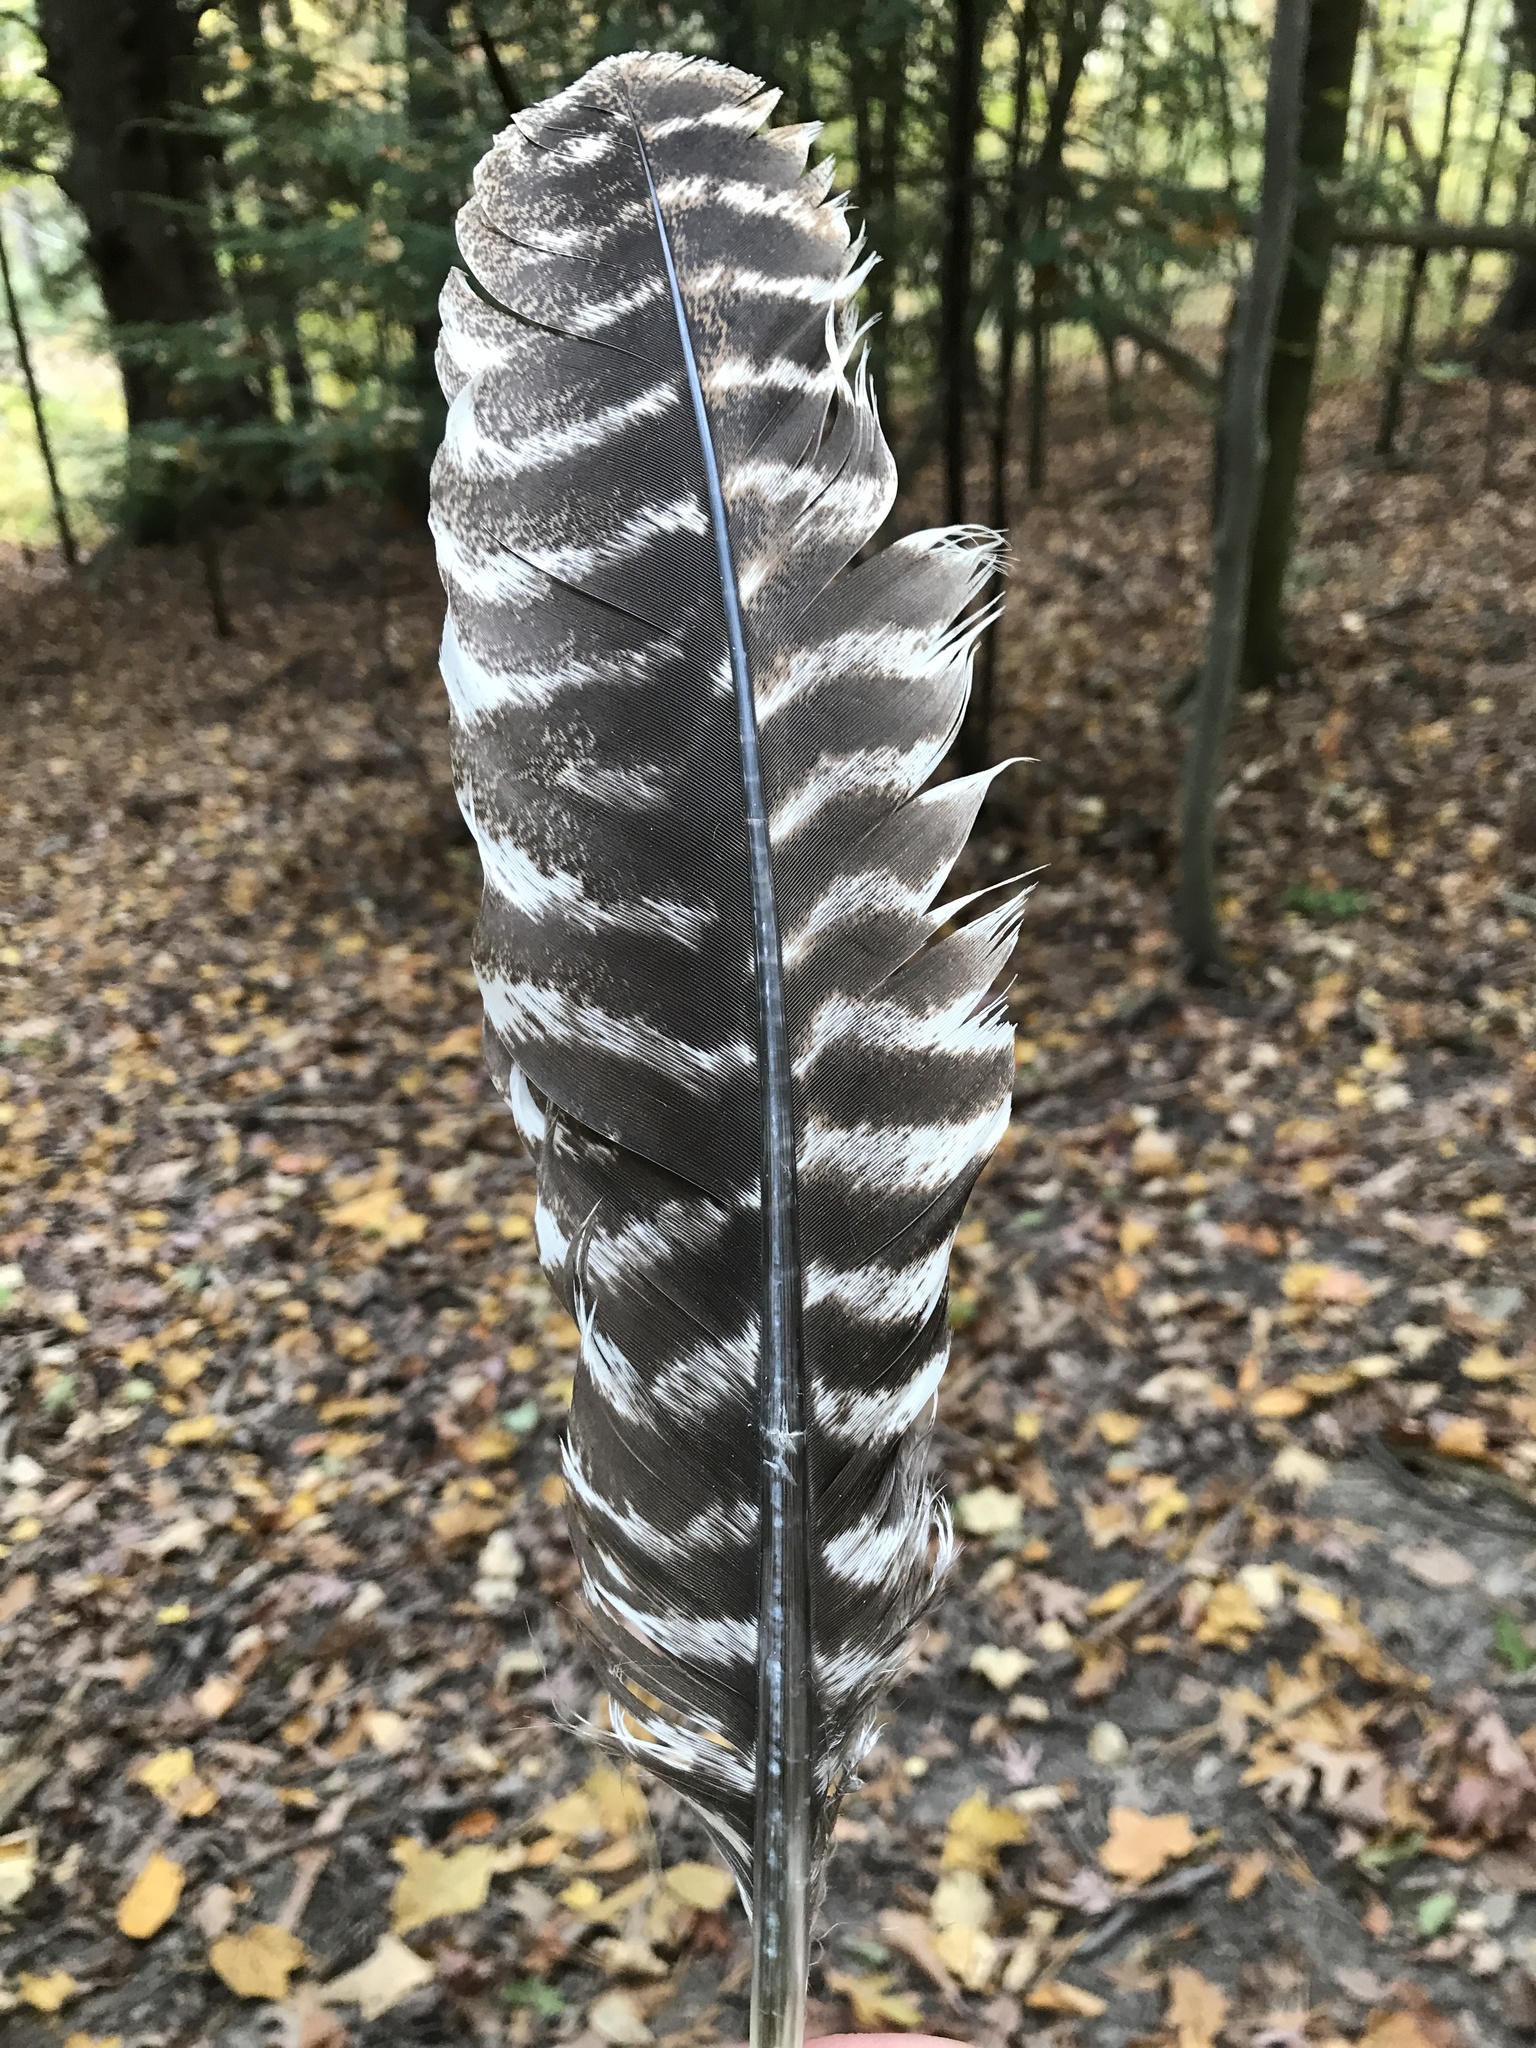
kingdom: Animalia
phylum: Chordata
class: Aves
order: Galliformes
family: Phasianidae
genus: Meleagris
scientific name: Meleagris gallopavo
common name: Wild turkey
